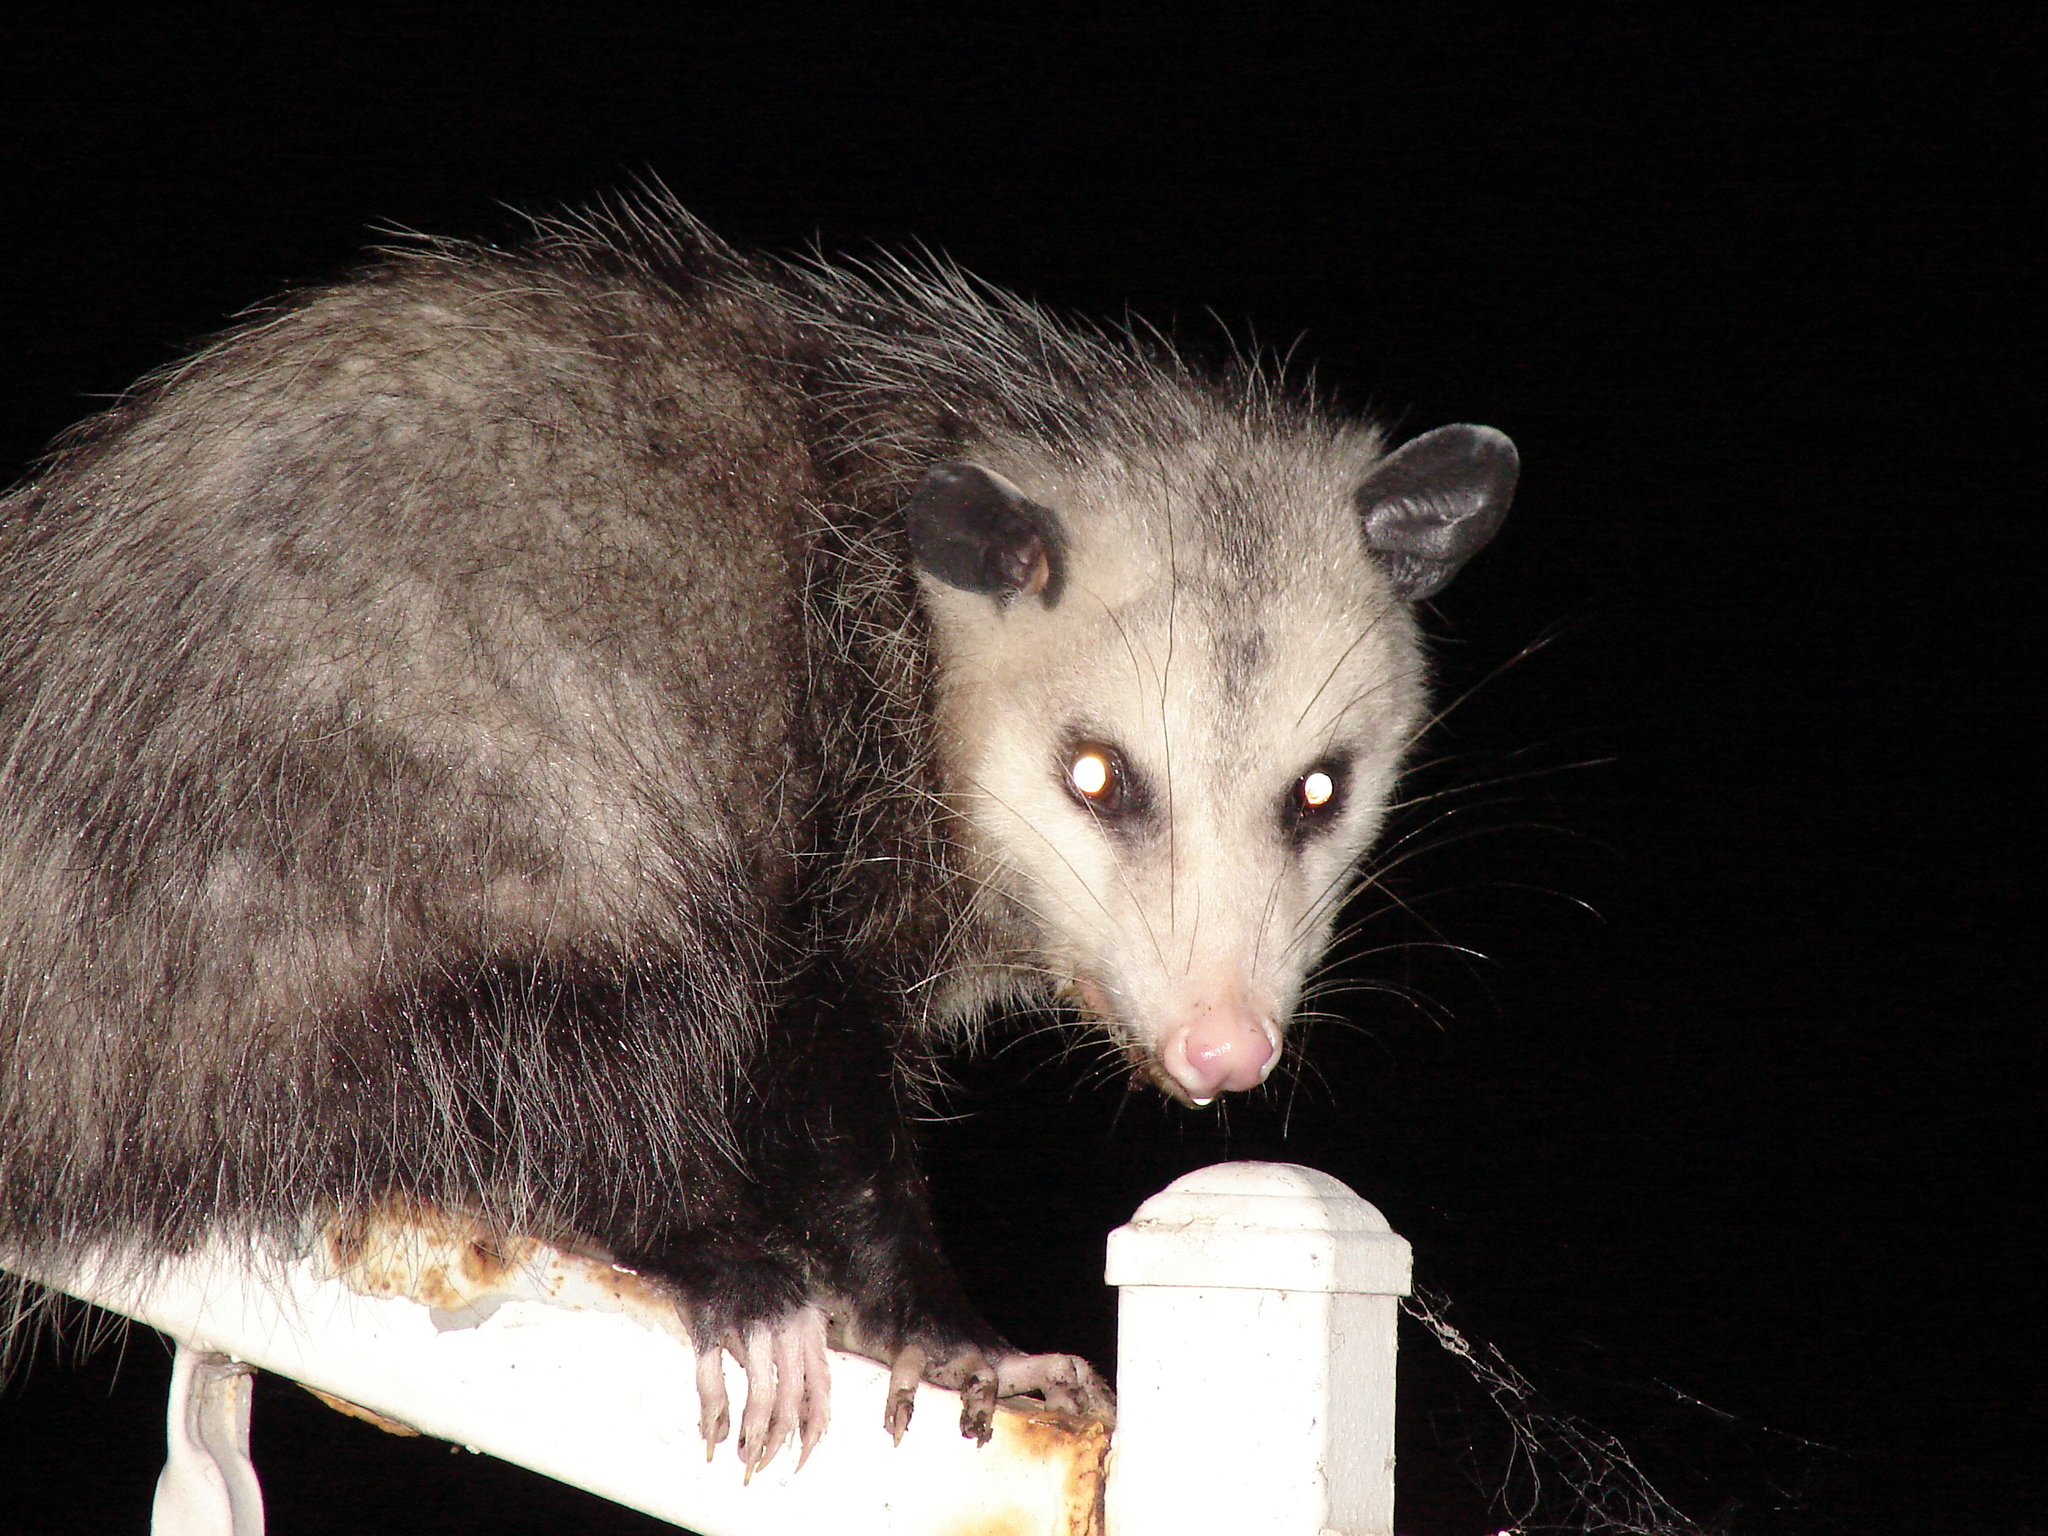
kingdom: Animalia
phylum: Chordata
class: Mammalia
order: Didelphimorphia
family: Didelphidae
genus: Didelphis
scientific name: Didelphis virginiana
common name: Virginia opossum
